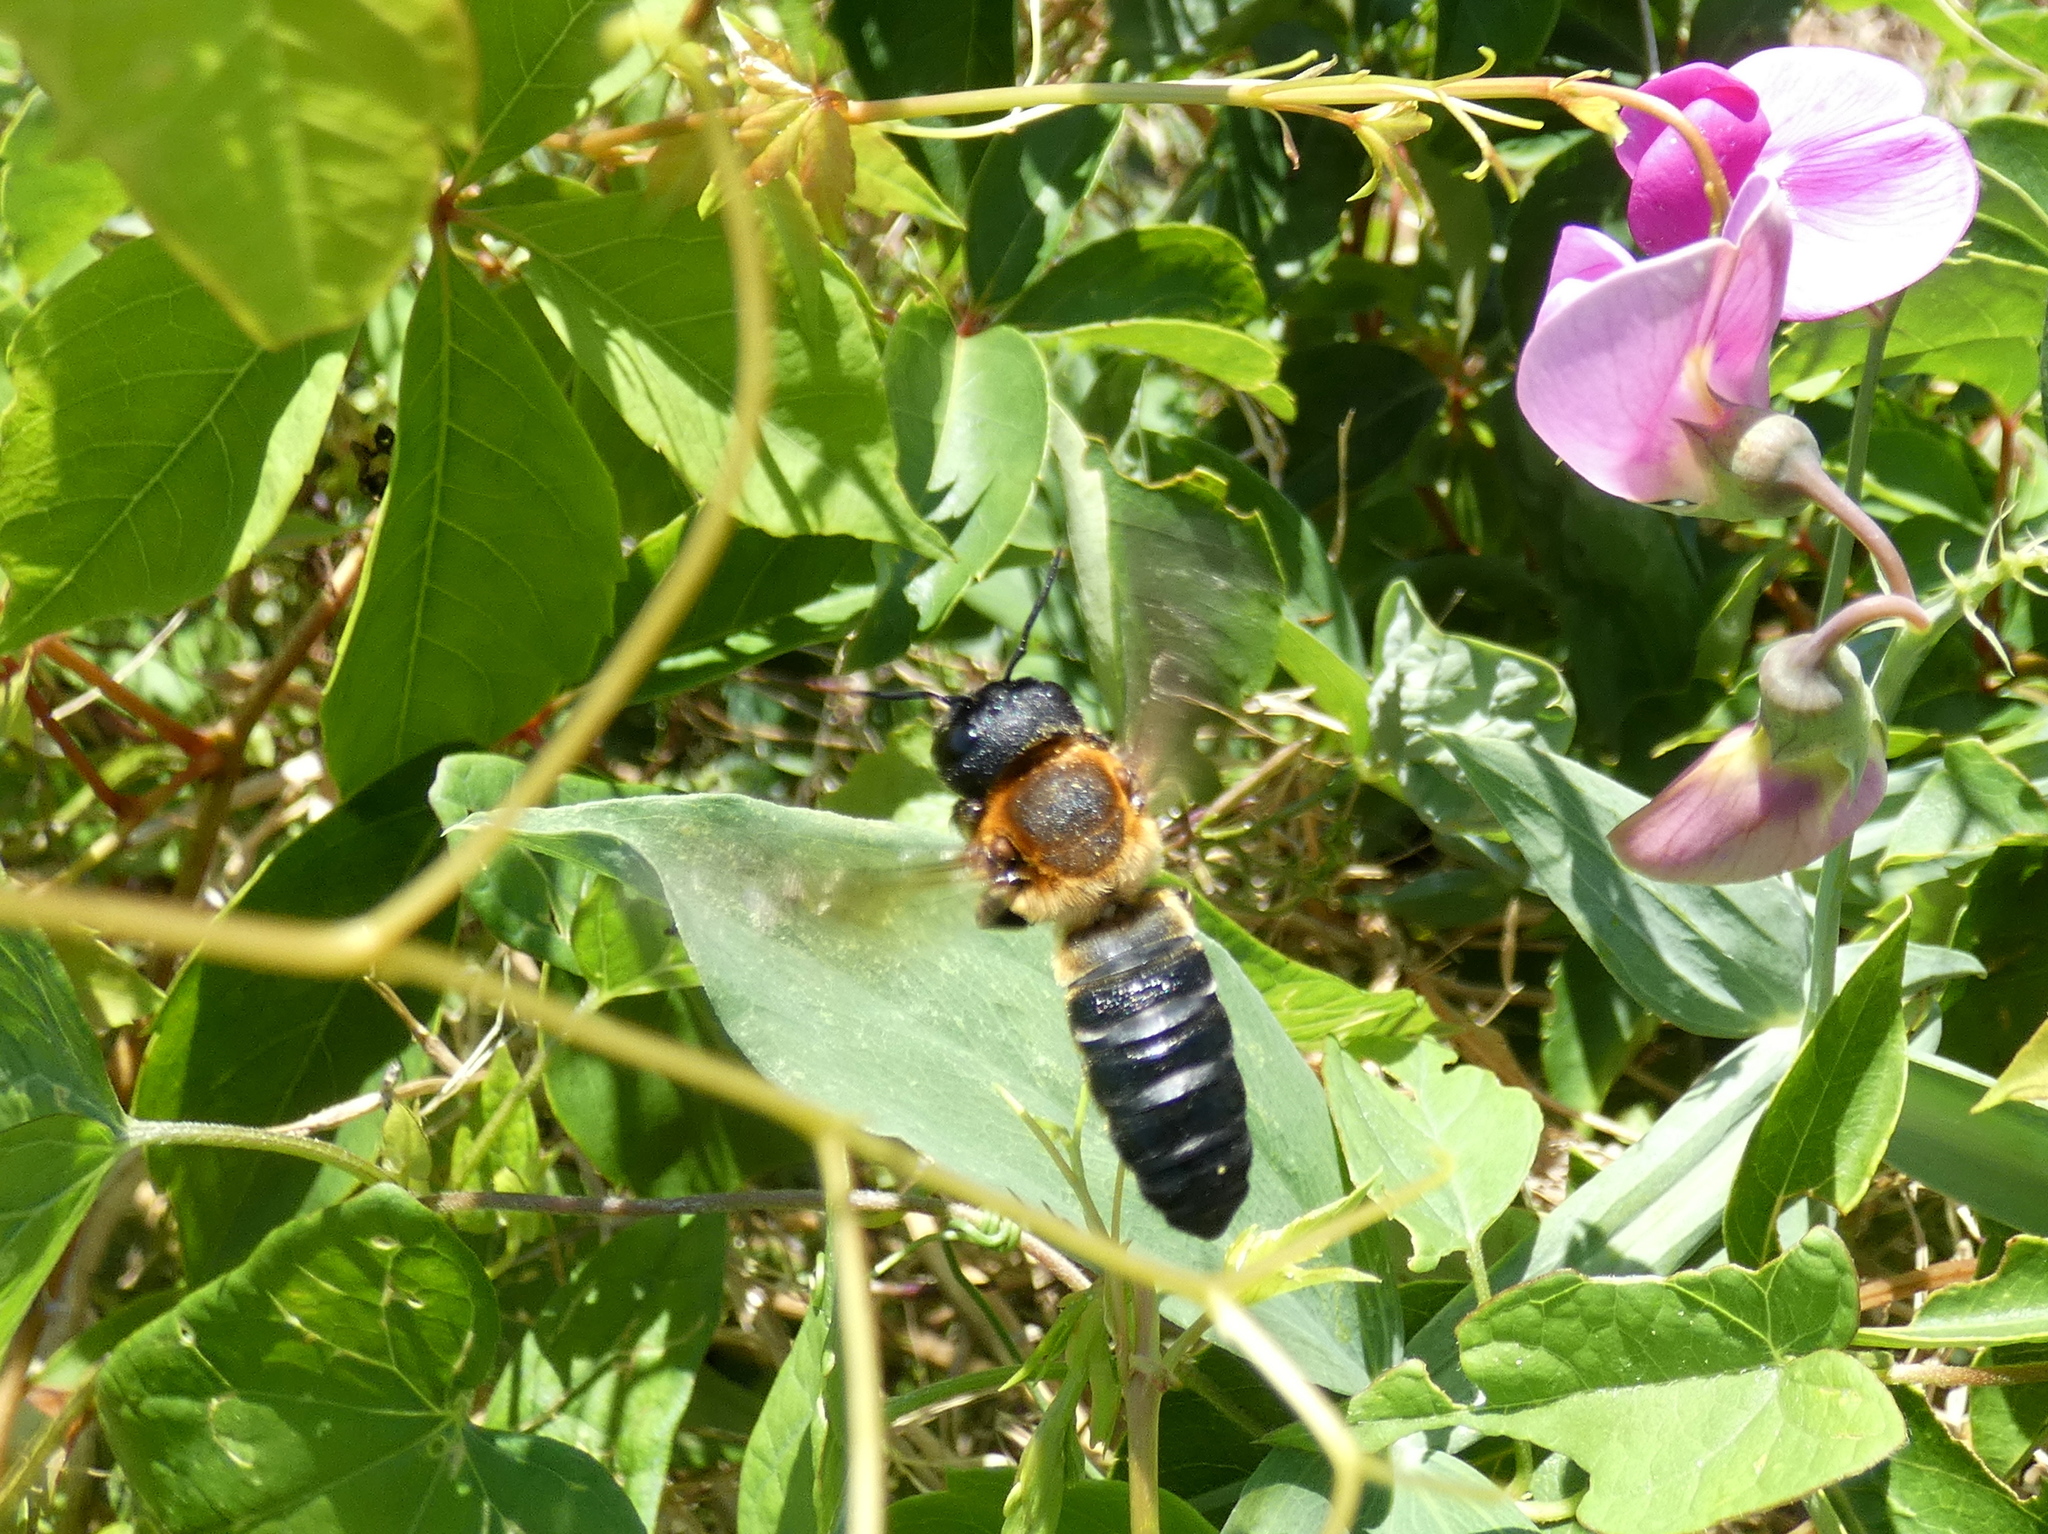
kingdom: Animalia
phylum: Arthropoda
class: Insecta
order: Hymenoptera
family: Megachilidae
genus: Megachile
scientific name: Megachile sculpturalis
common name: Sculptured resin bee
